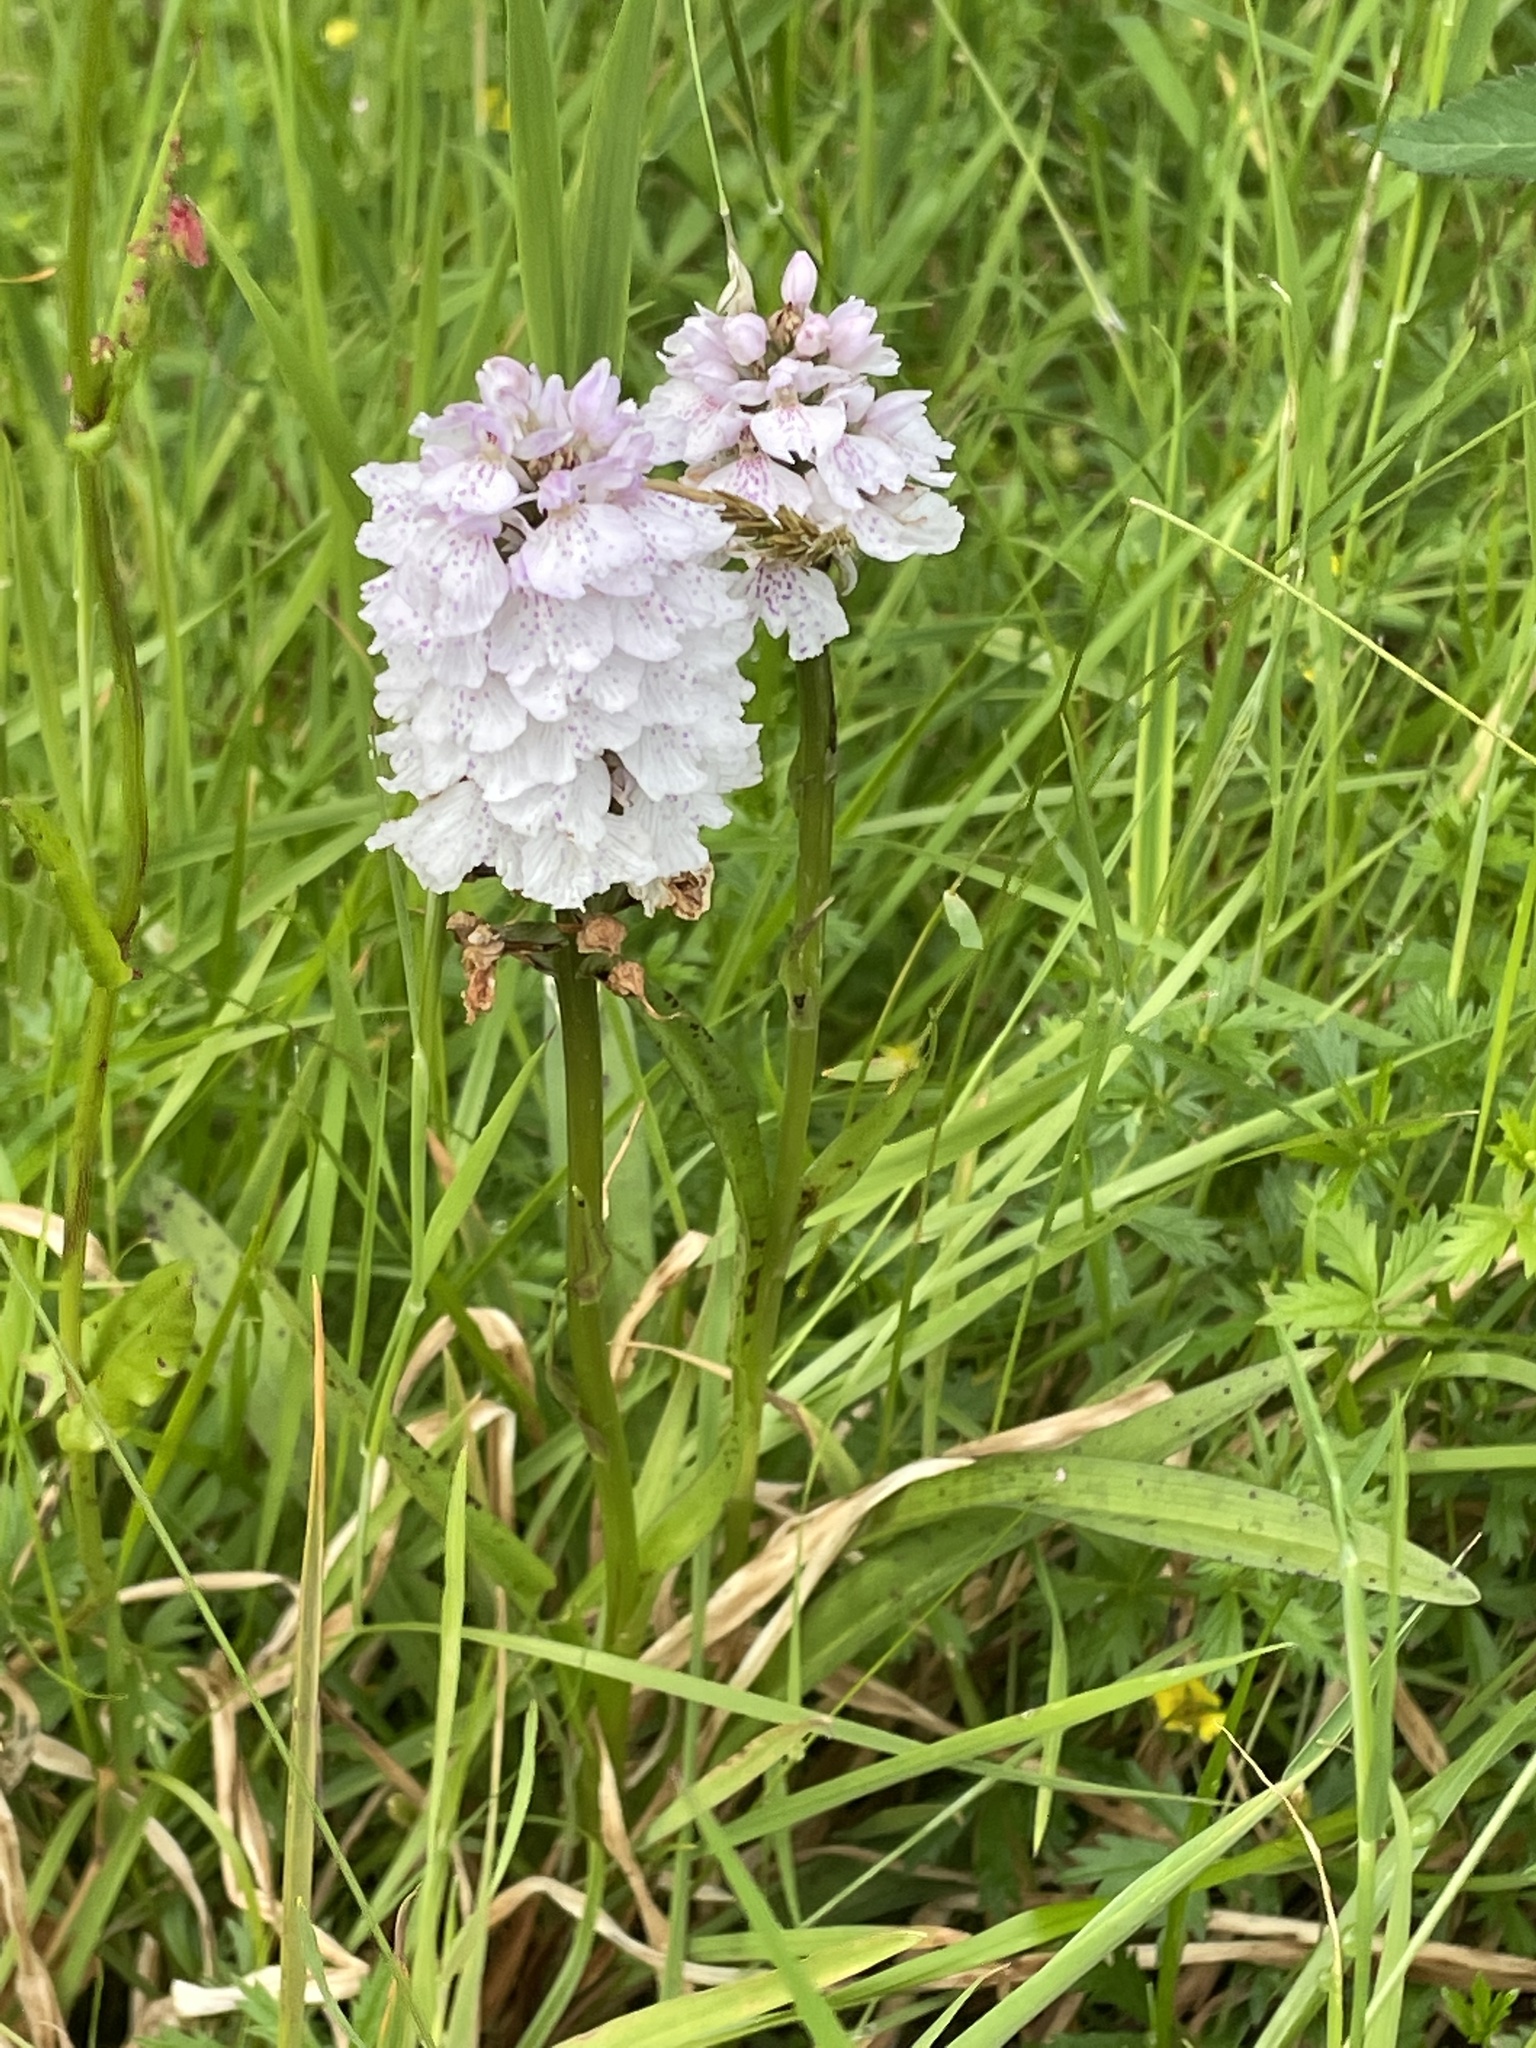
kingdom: Plantae
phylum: Tracheophyta
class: Liliopsida
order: Asparagales
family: Orchidaceae
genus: Dactylorhiza
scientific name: Dactylorhiza maculata
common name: Heath spotted-orchid
